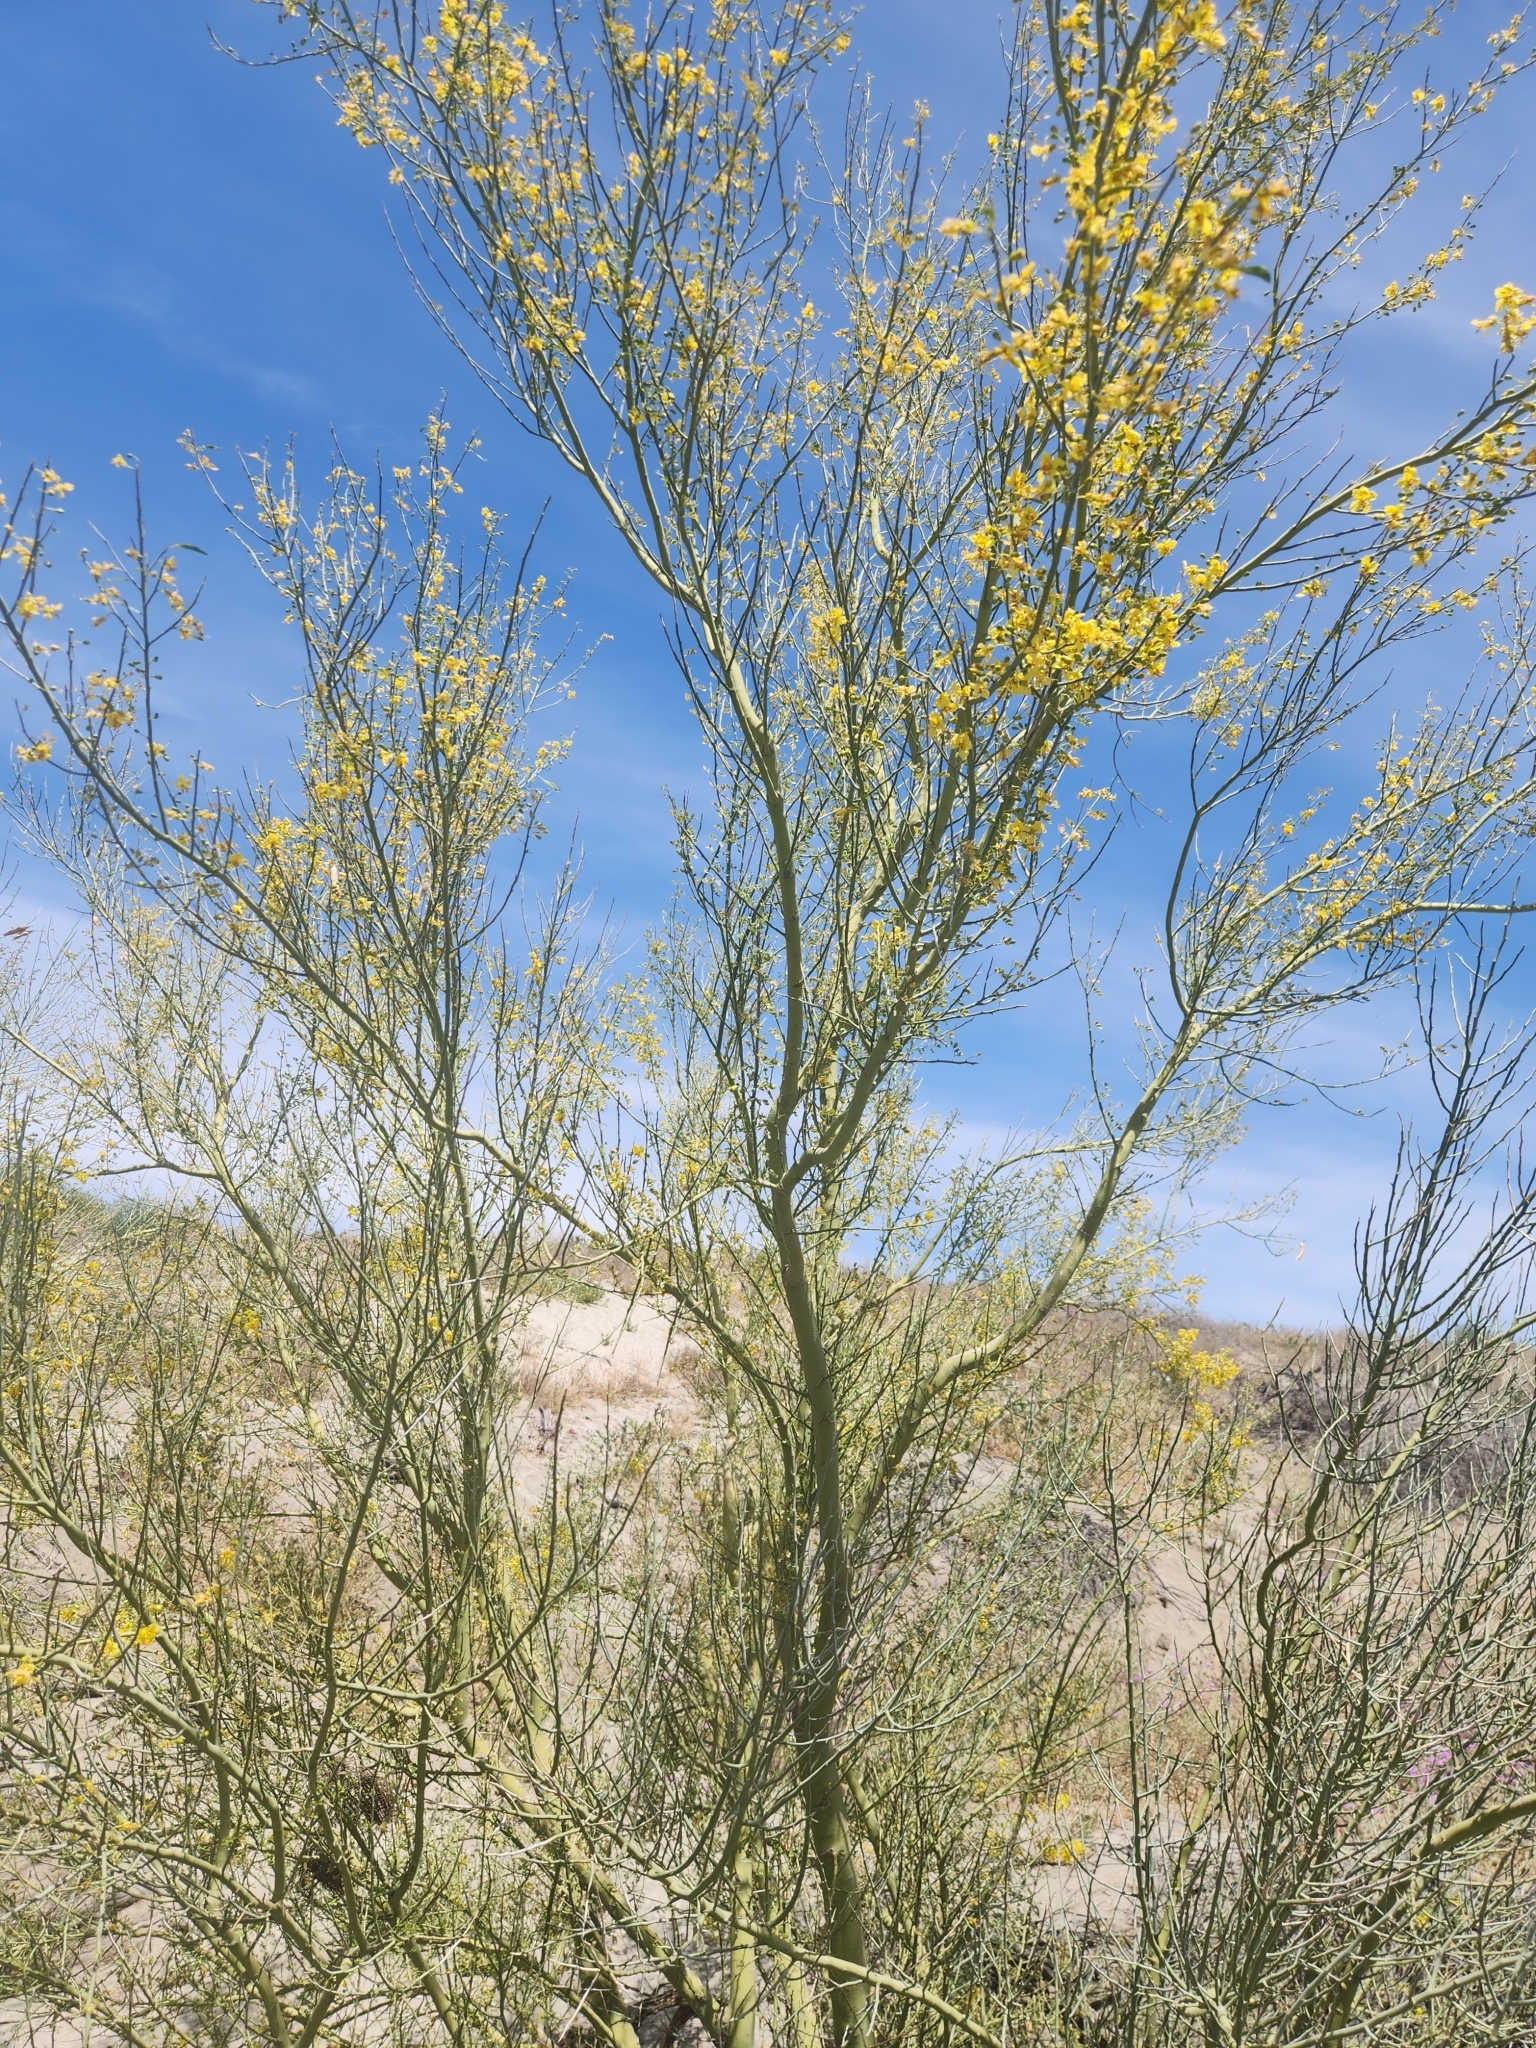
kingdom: Plantae
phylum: Tracheophyta
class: Magnoliopsida
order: Fabales
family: Fabaceae
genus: Parkinsonia
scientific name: Parkinsonia florida
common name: Blue paloverde
